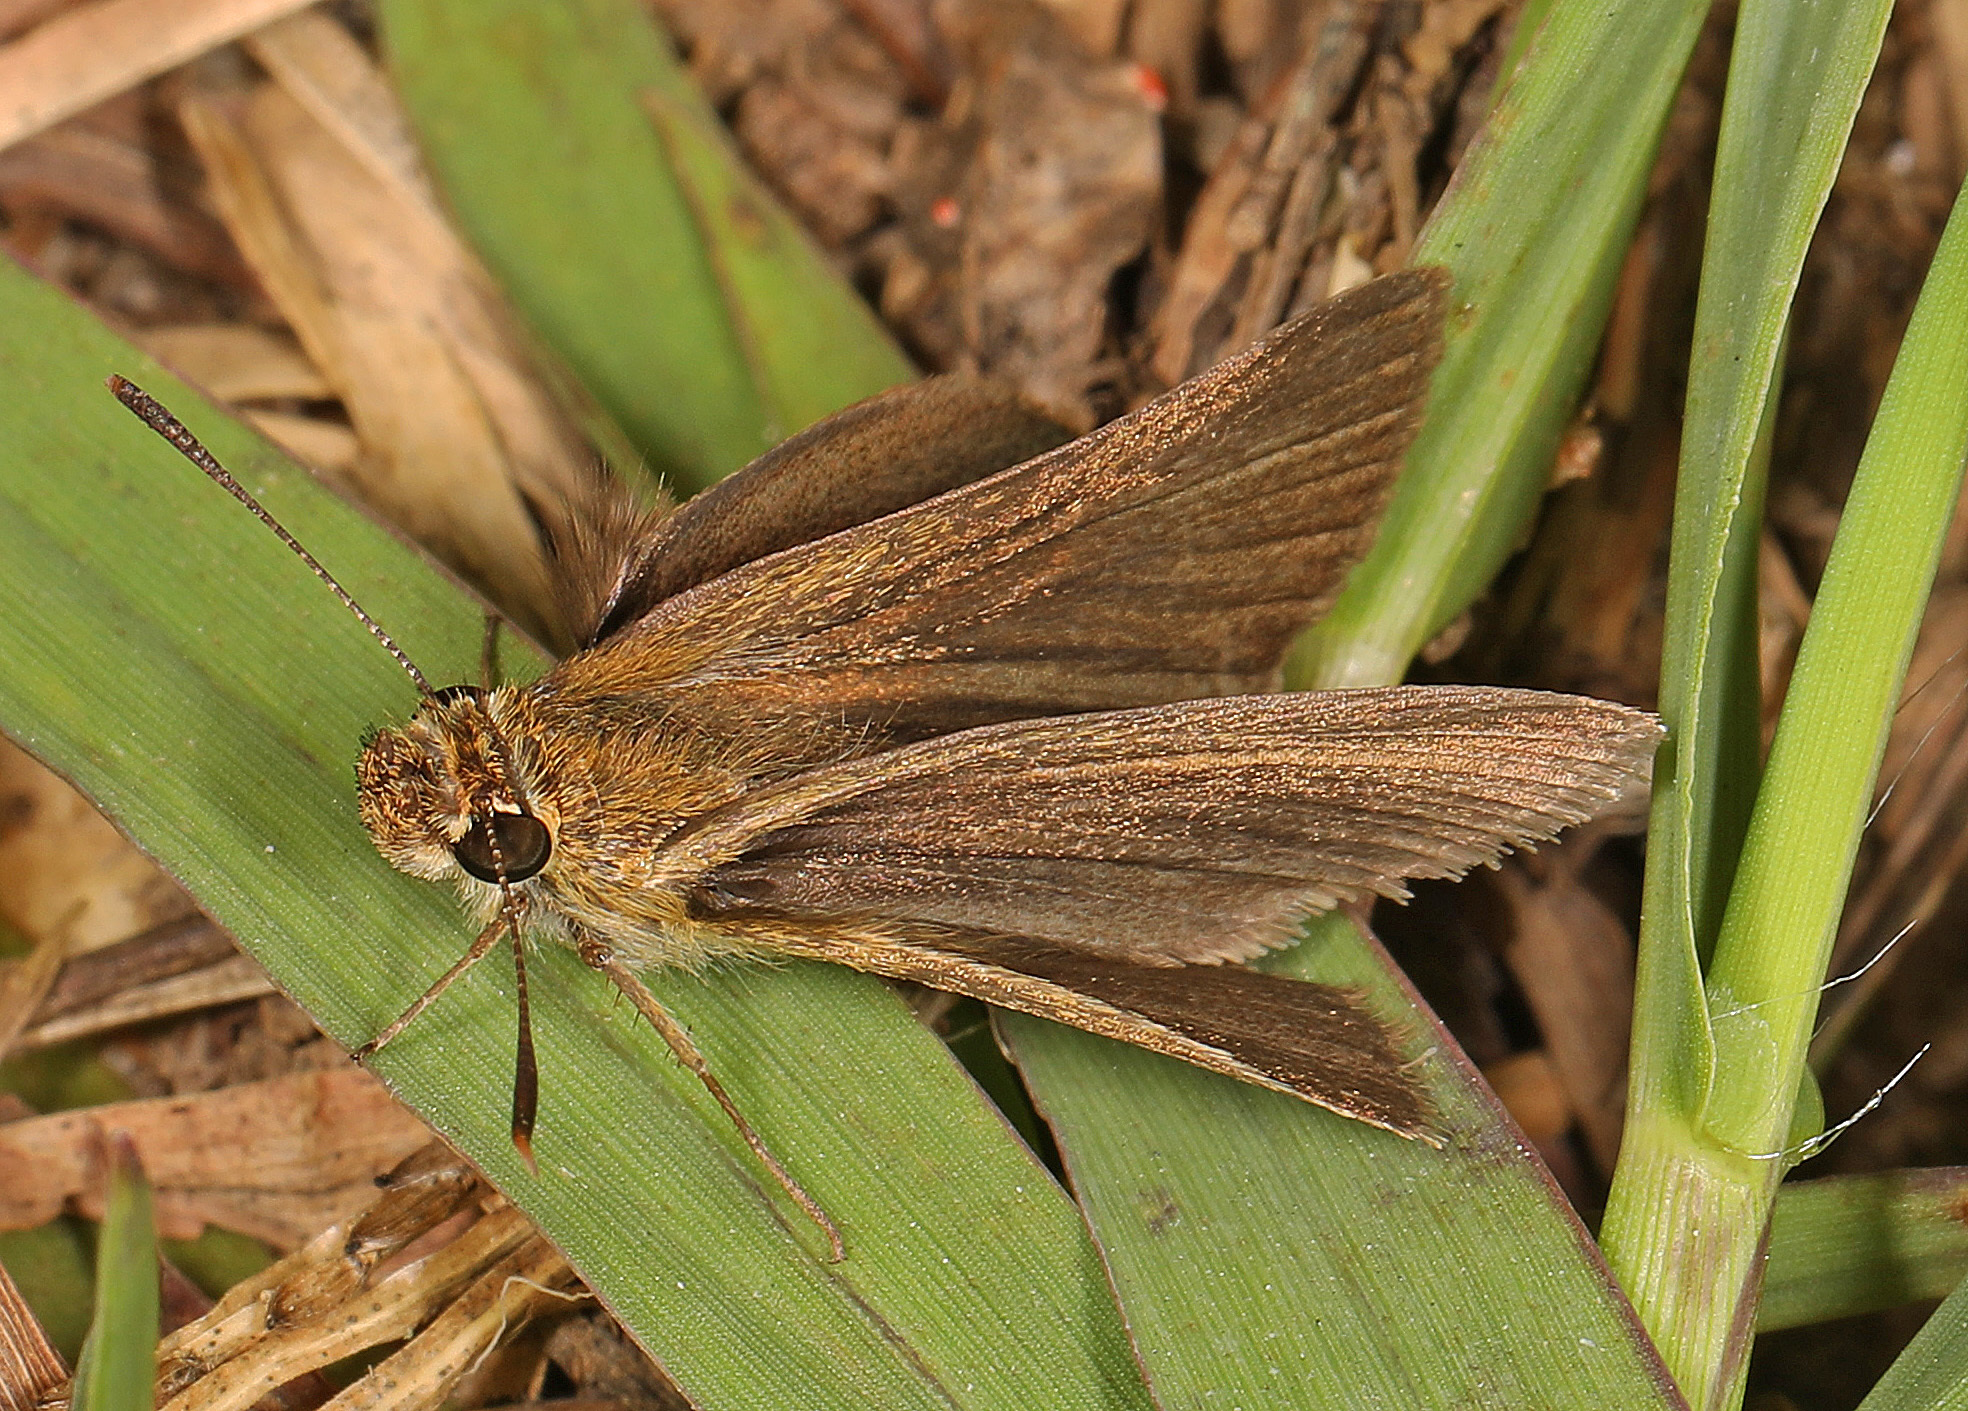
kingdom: Animalia
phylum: Arthropoda
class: Insecta
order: Lepidoptera
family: Hesperiidae
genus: Nastra
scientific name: Nastra lherminier
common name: Swarthy skipper
